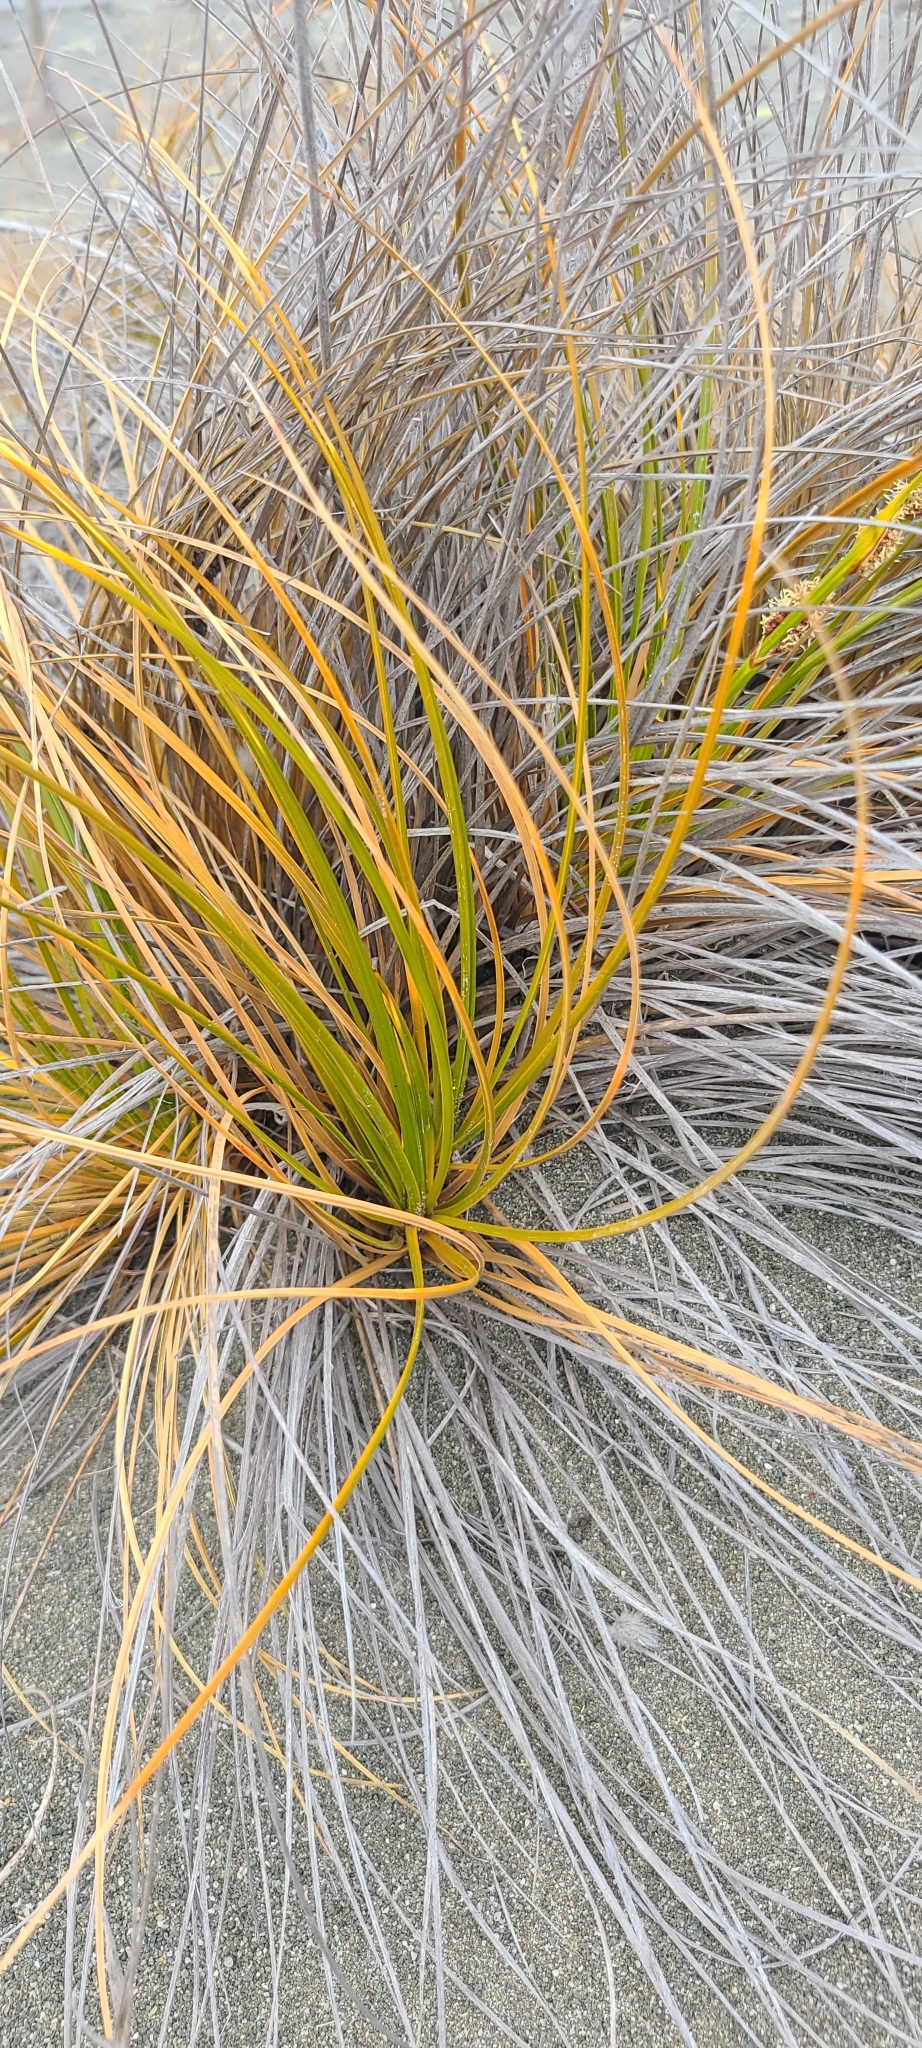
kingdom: Plantae
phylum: Tracheophyta
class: Liliopsida
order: Poales
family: Cyperaceae
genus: Ficinia
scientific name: Ficinia spiralis
